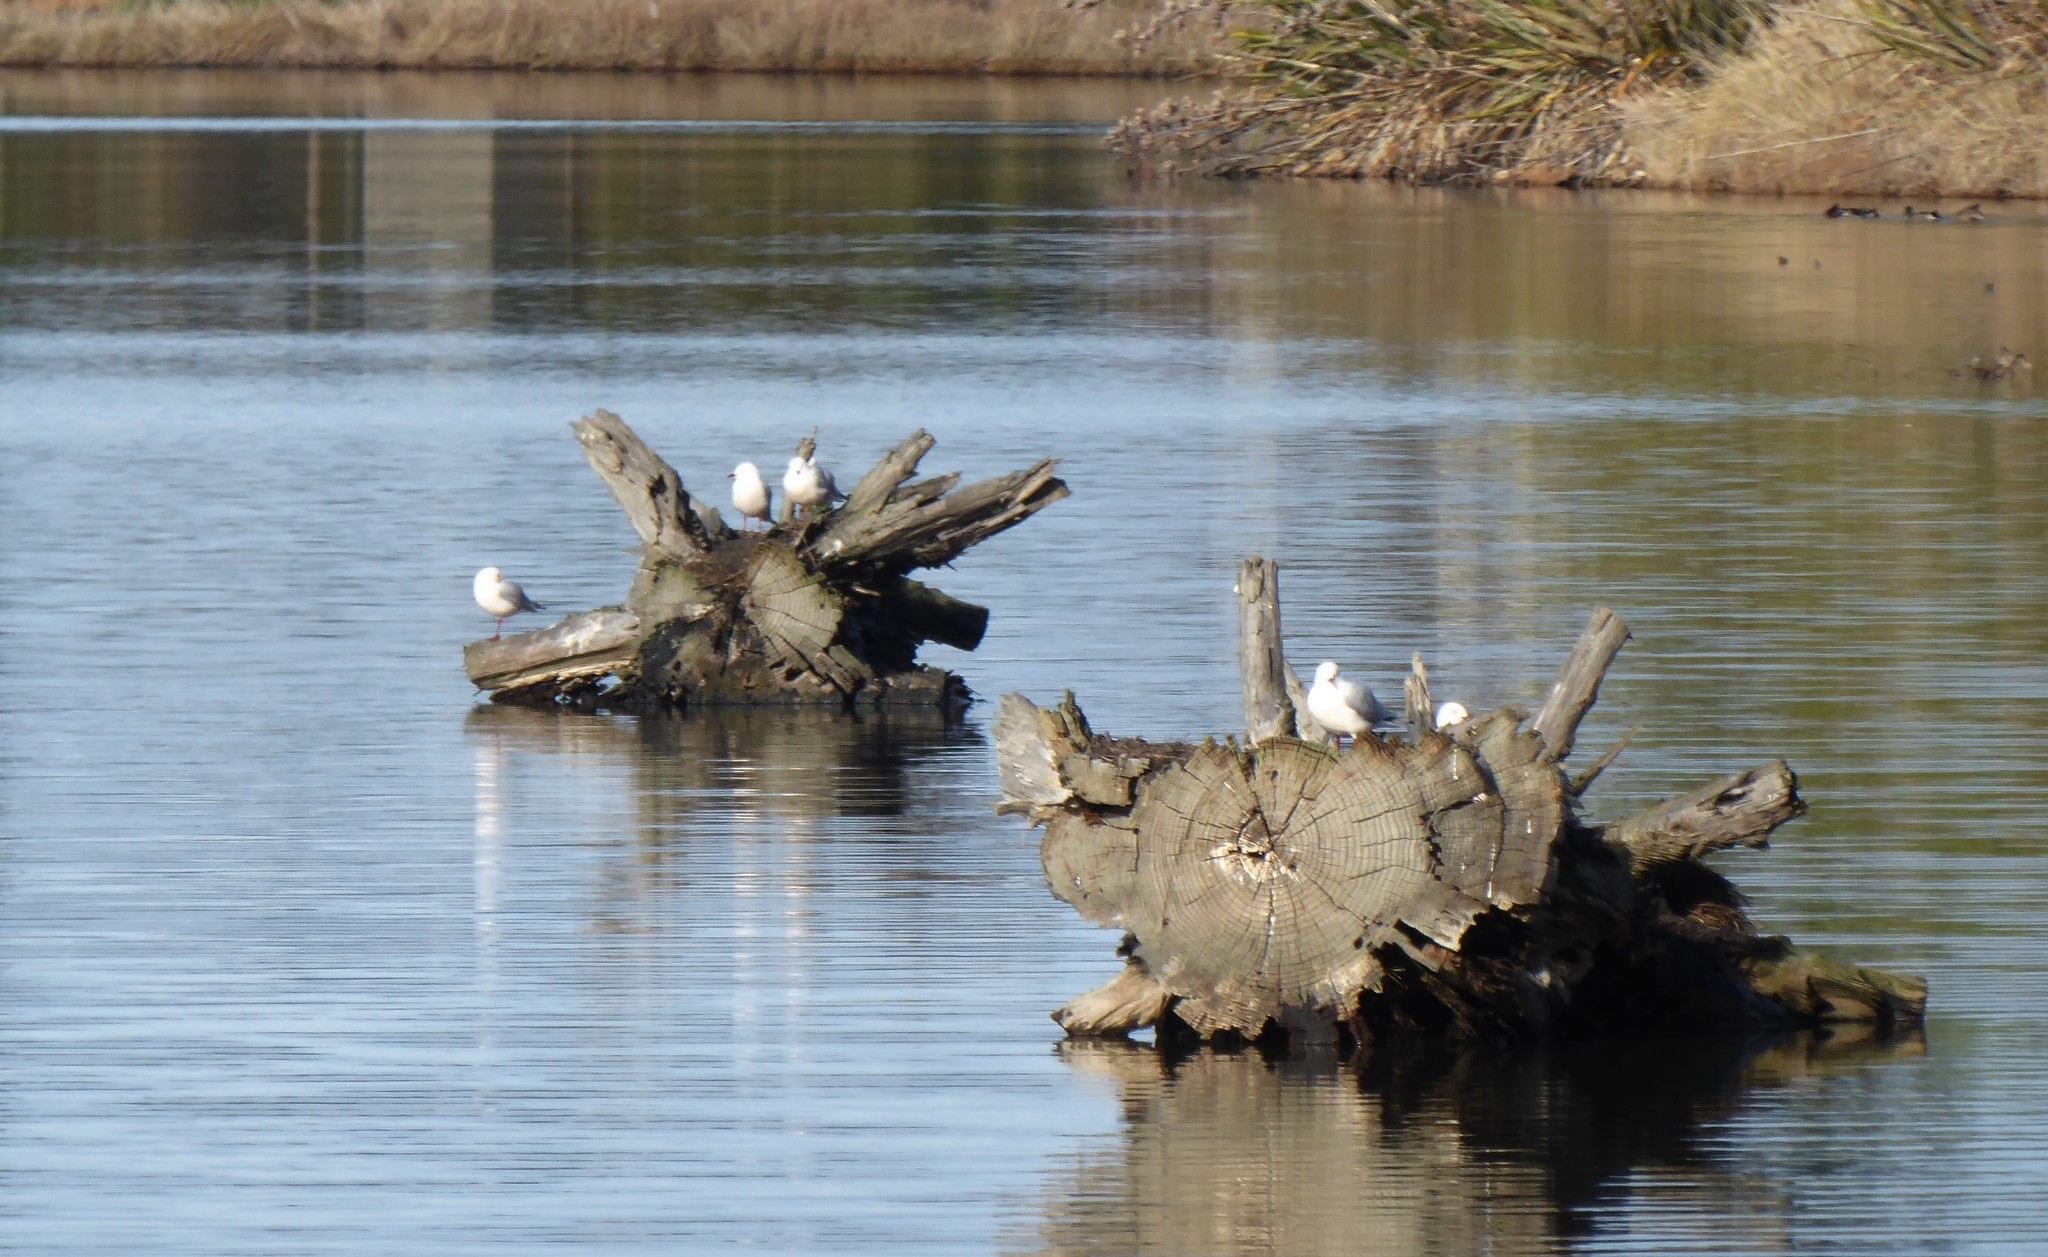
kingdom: Animalia
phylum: Chordata
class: Aves
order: Charadriiformes
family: Laridae
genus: Chroicocephalus
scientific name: Chroicocephalus novaehollandiae
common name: Silver gull
